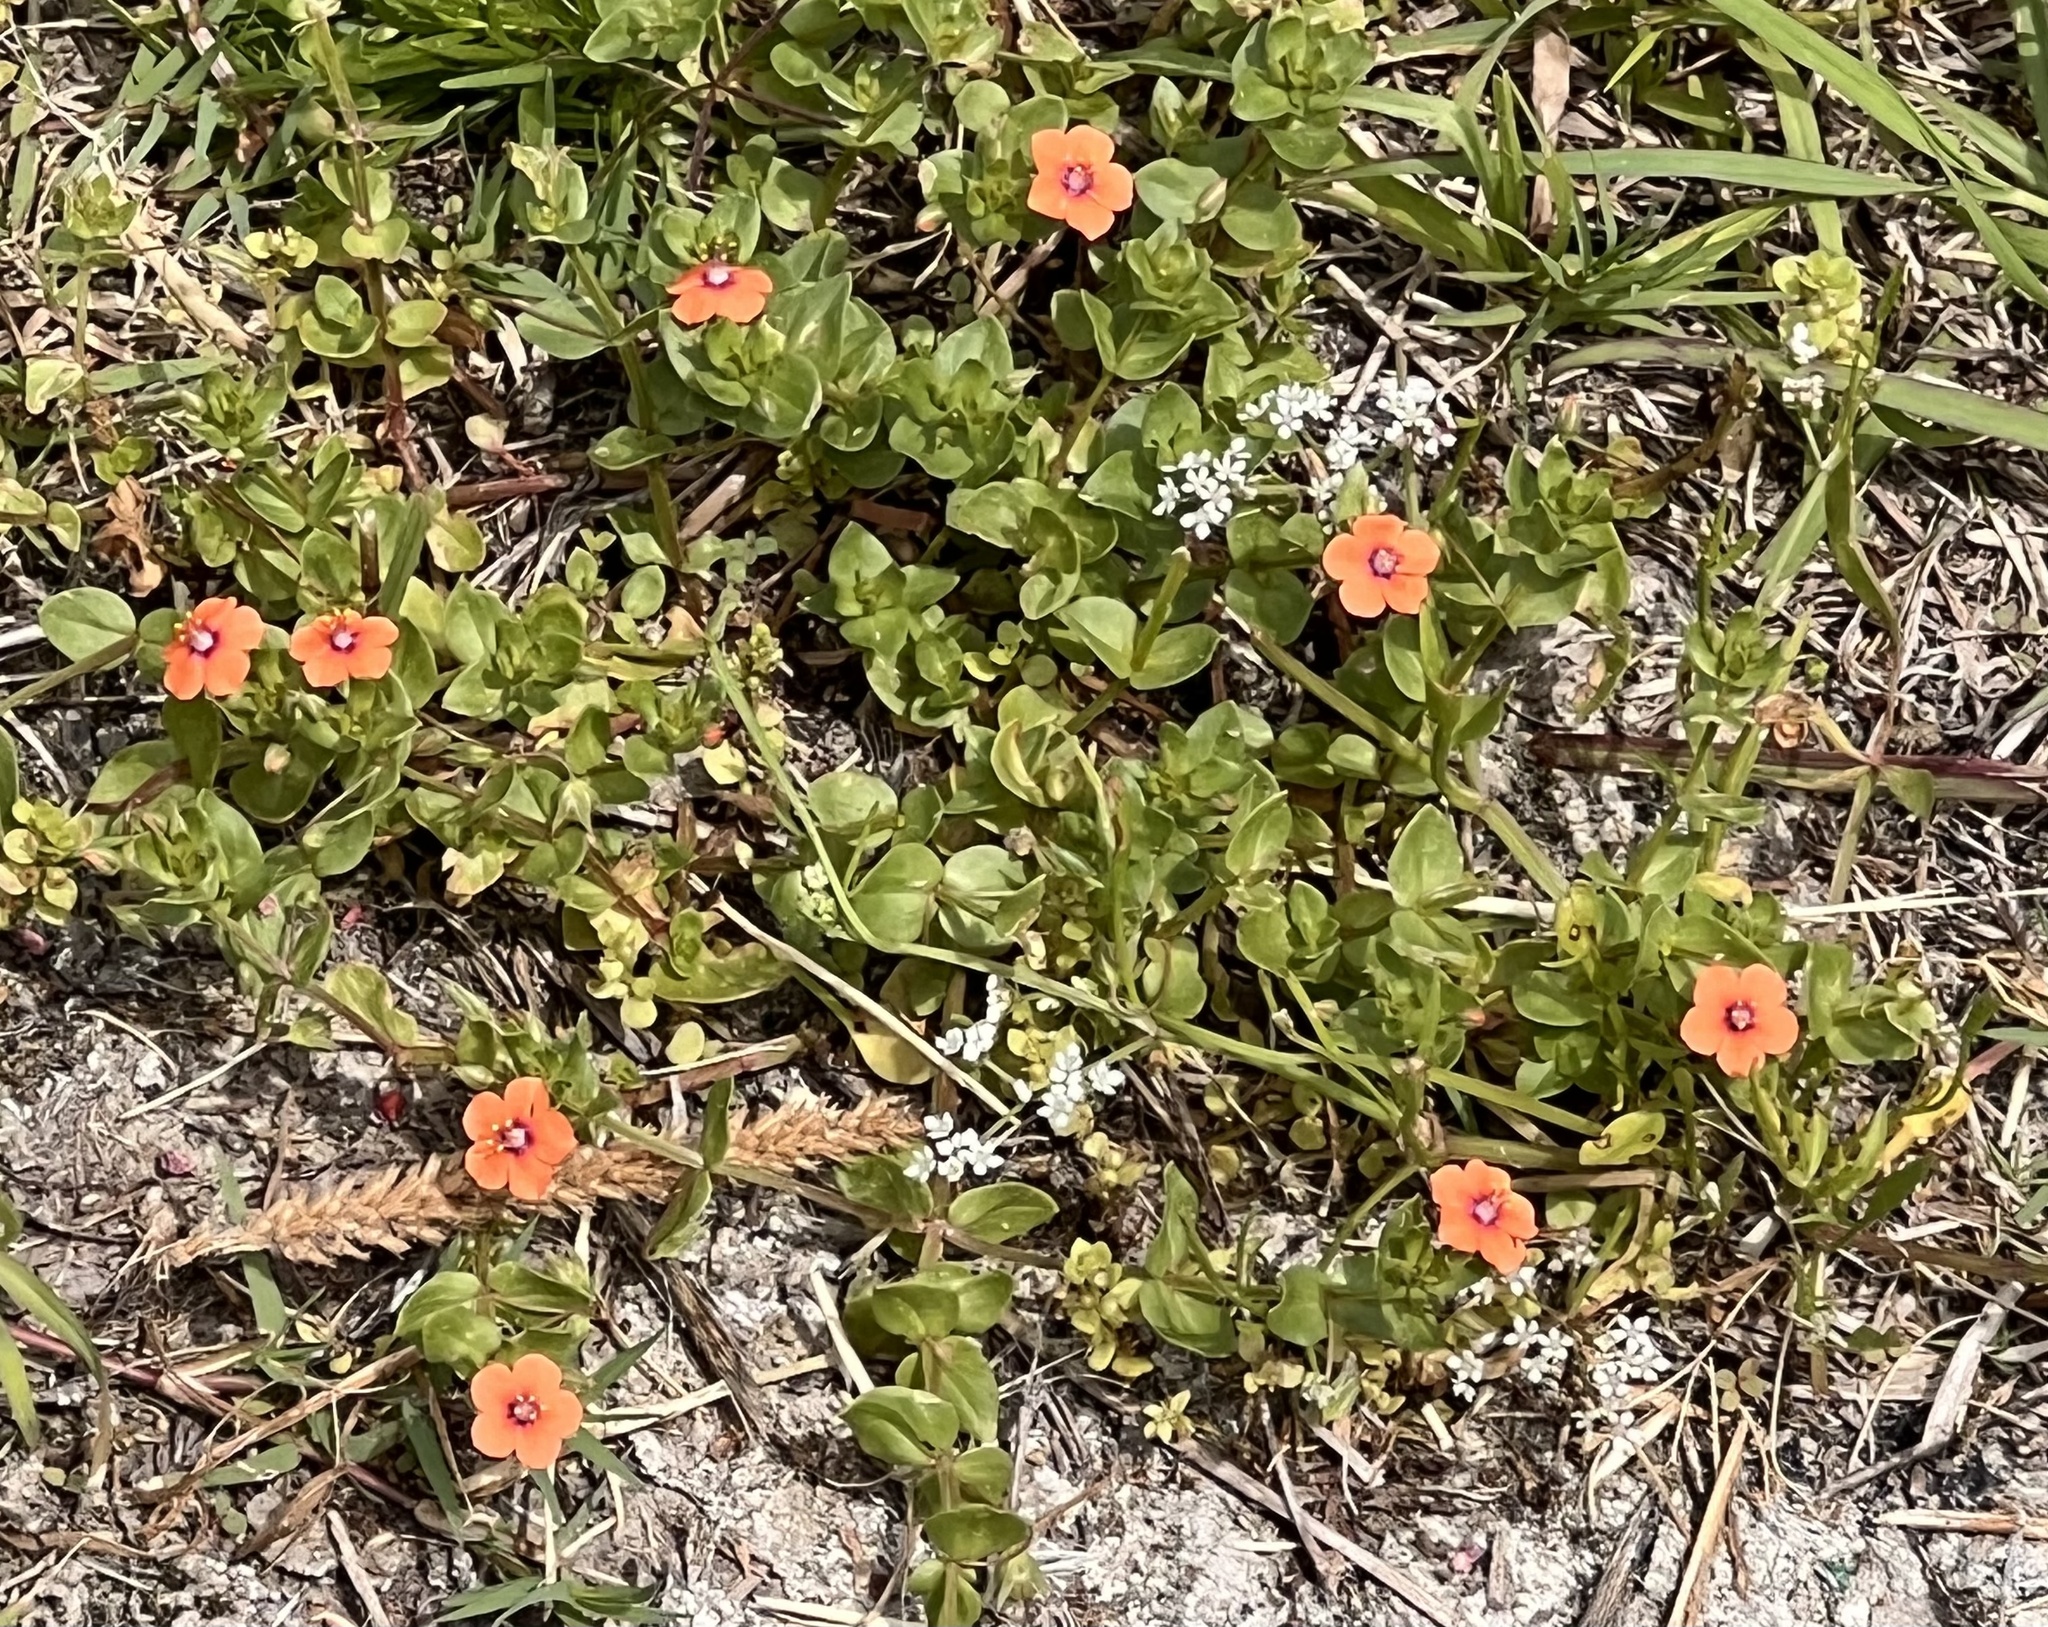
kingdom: Plantae
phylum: Tracheophyta
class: Magnoliopsida
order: Ericales
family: Primulaceae
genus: Lysimachia
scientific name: Lysimachia arvensis
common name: Scarlet pimpernel
